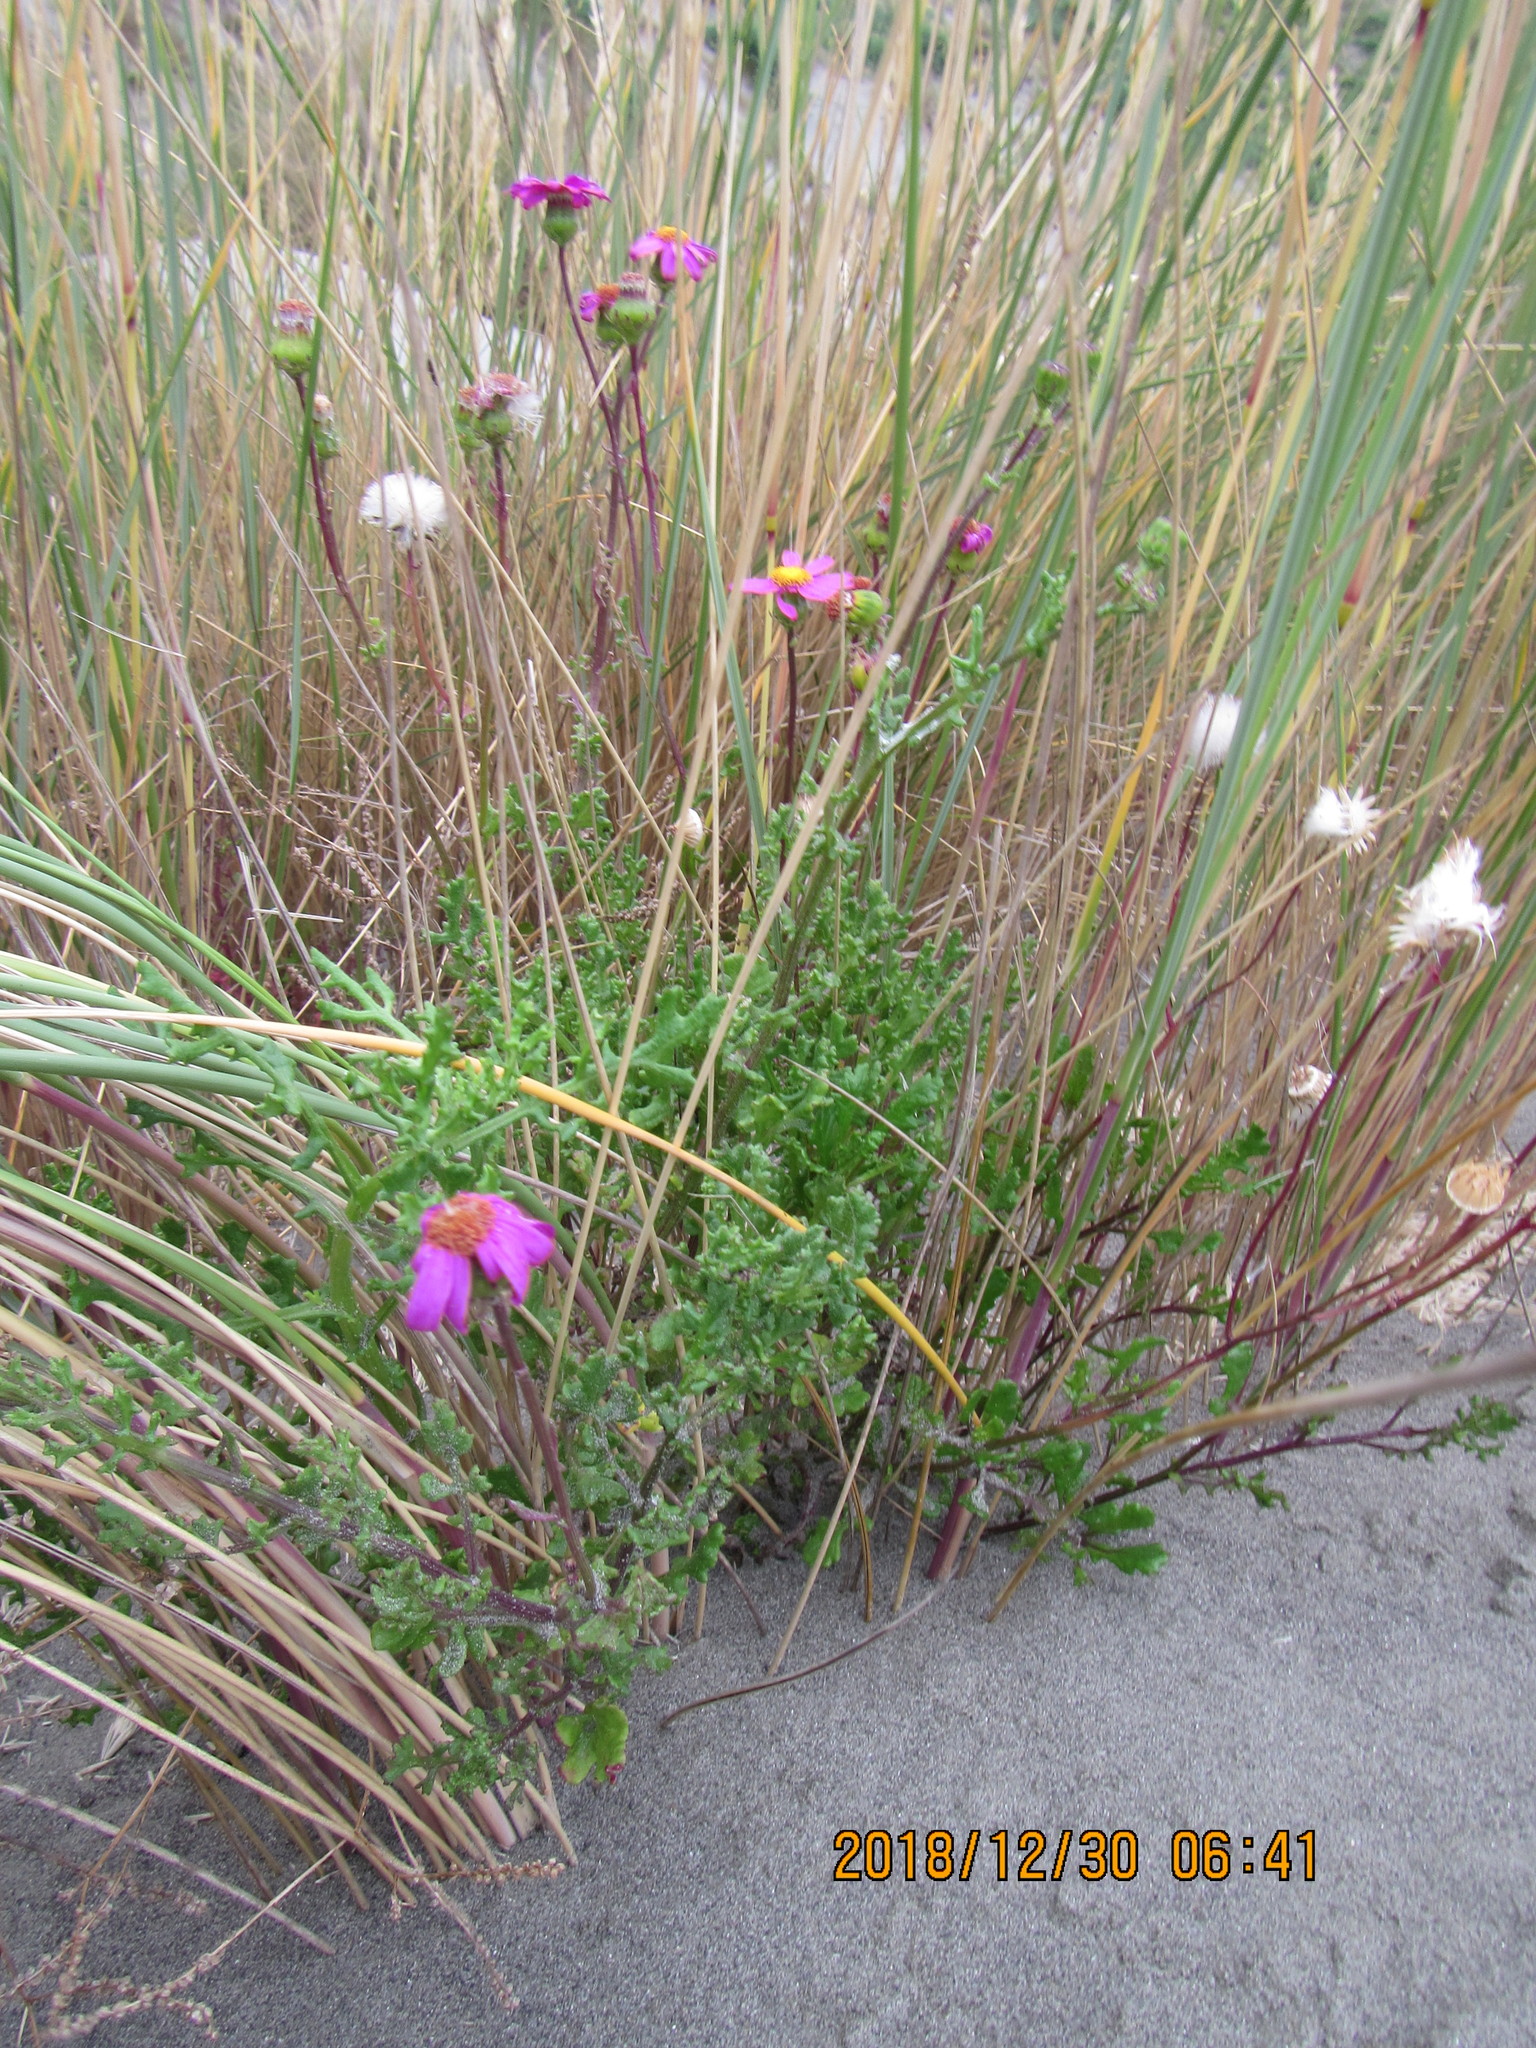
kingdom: Plantae
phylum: Tracheophyta
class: Magnoliopsida
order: Asterales
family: Asteraceae
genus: Senecio
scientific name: Senecio elegans
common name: Purple groundsel
